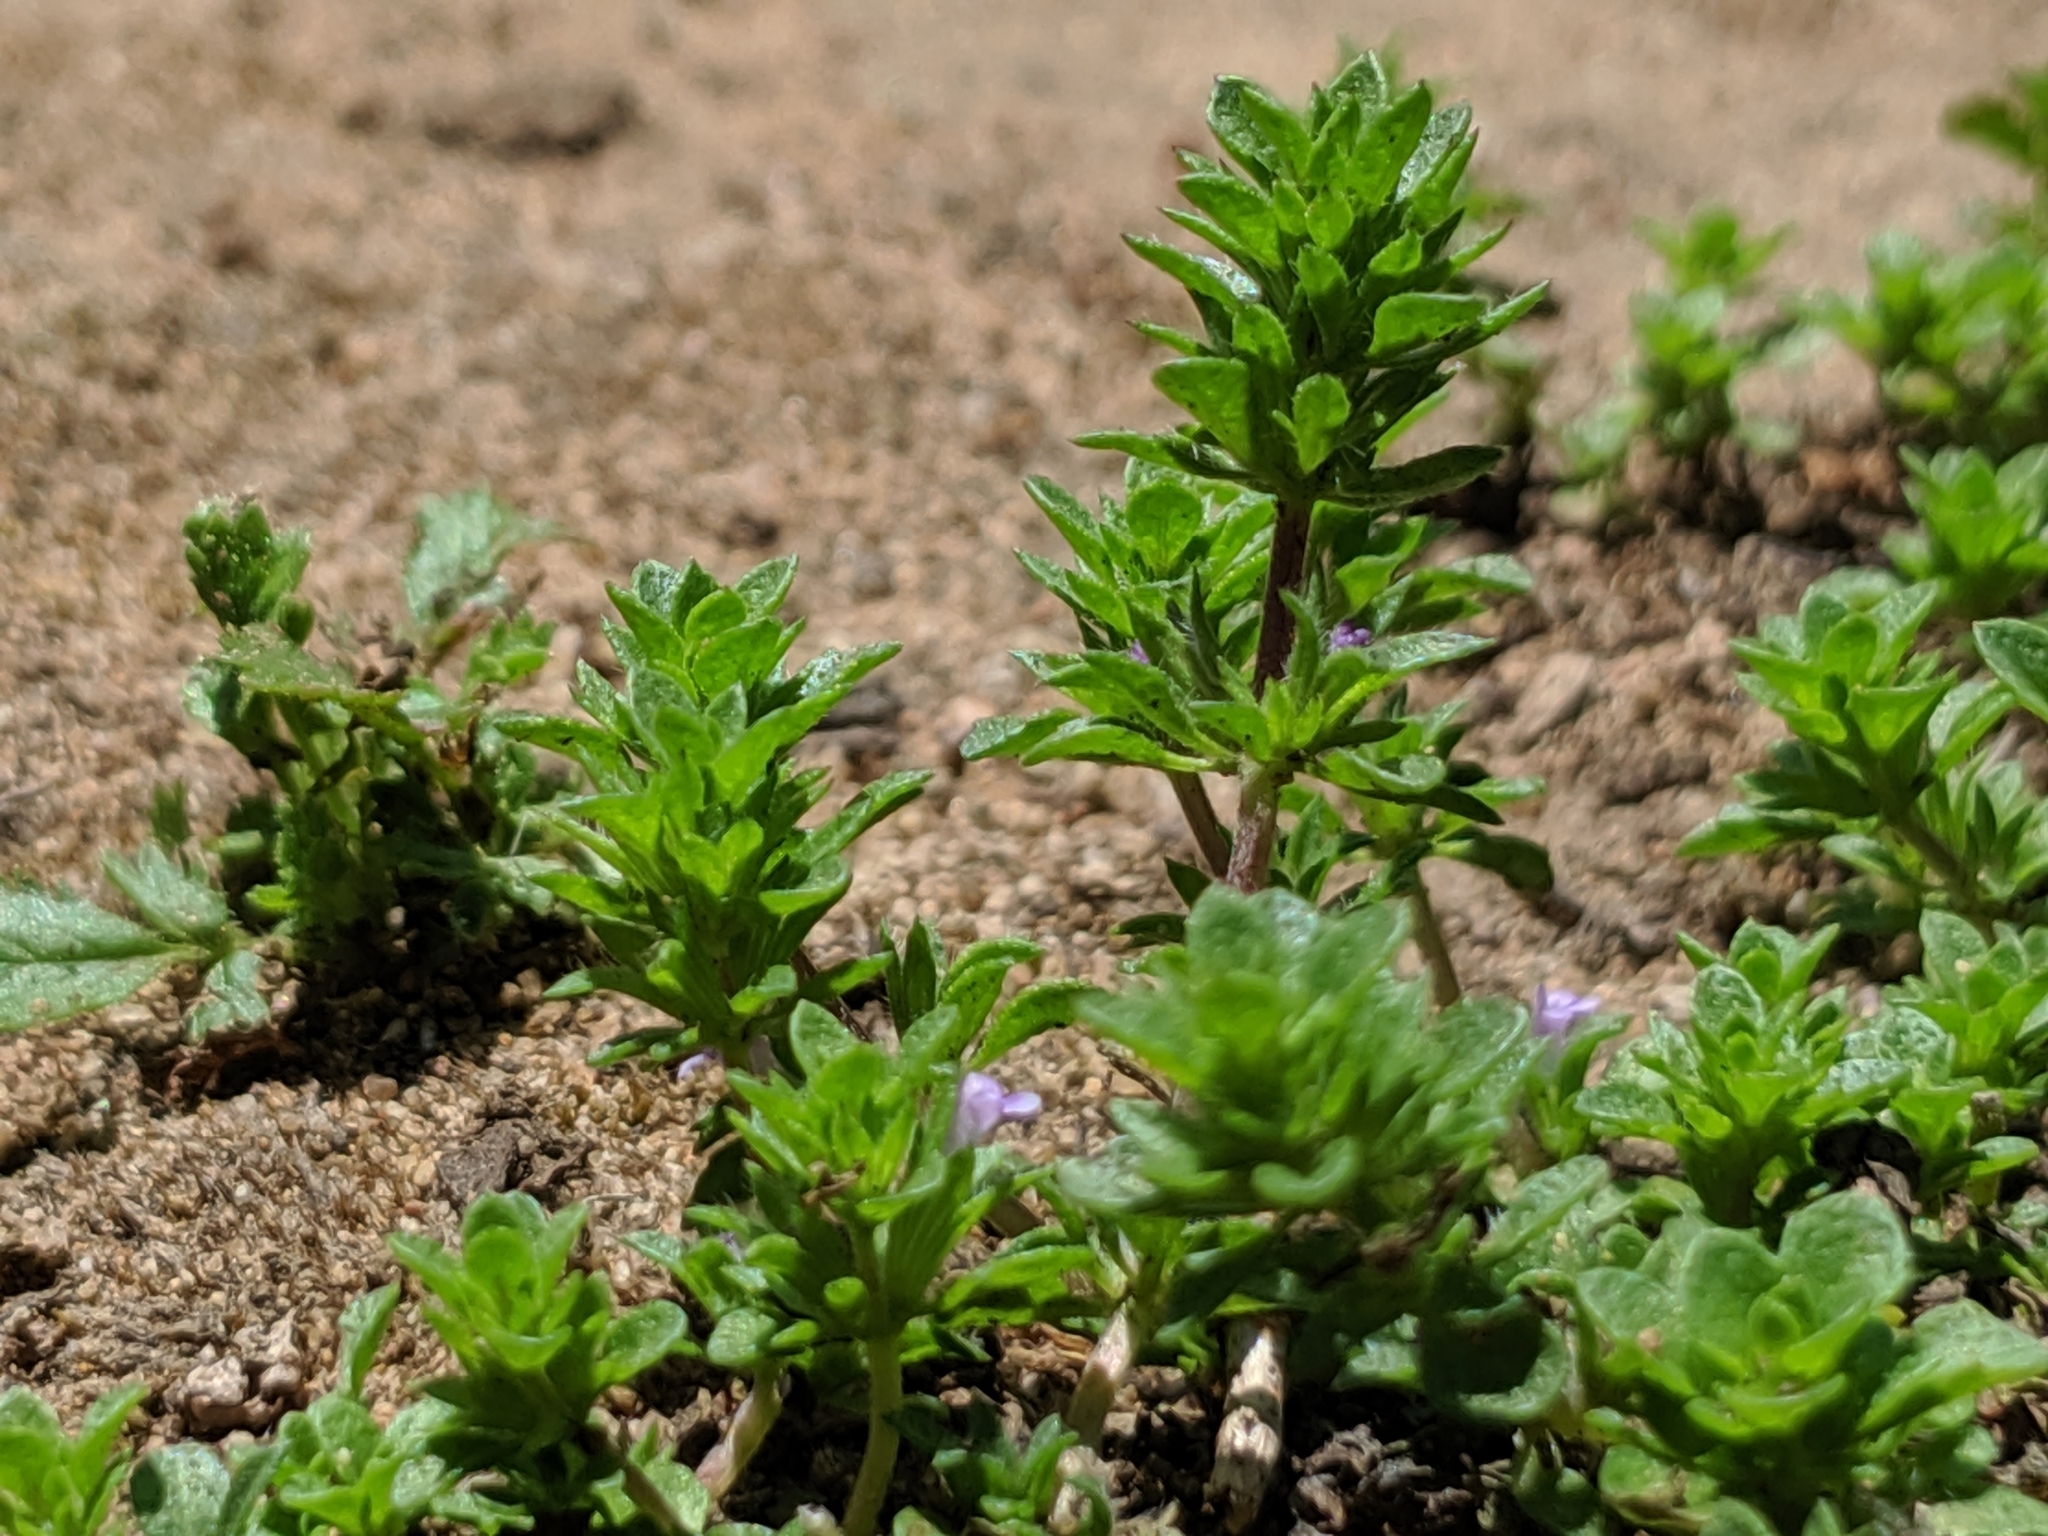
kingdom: Plantae
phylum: Tracheophyta
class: Magnoliopsida
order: Lamiales
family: Lamiaceae
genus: Pogogyne
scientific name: Pogogyne serpylloides
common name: Thymeleaf mesamint
